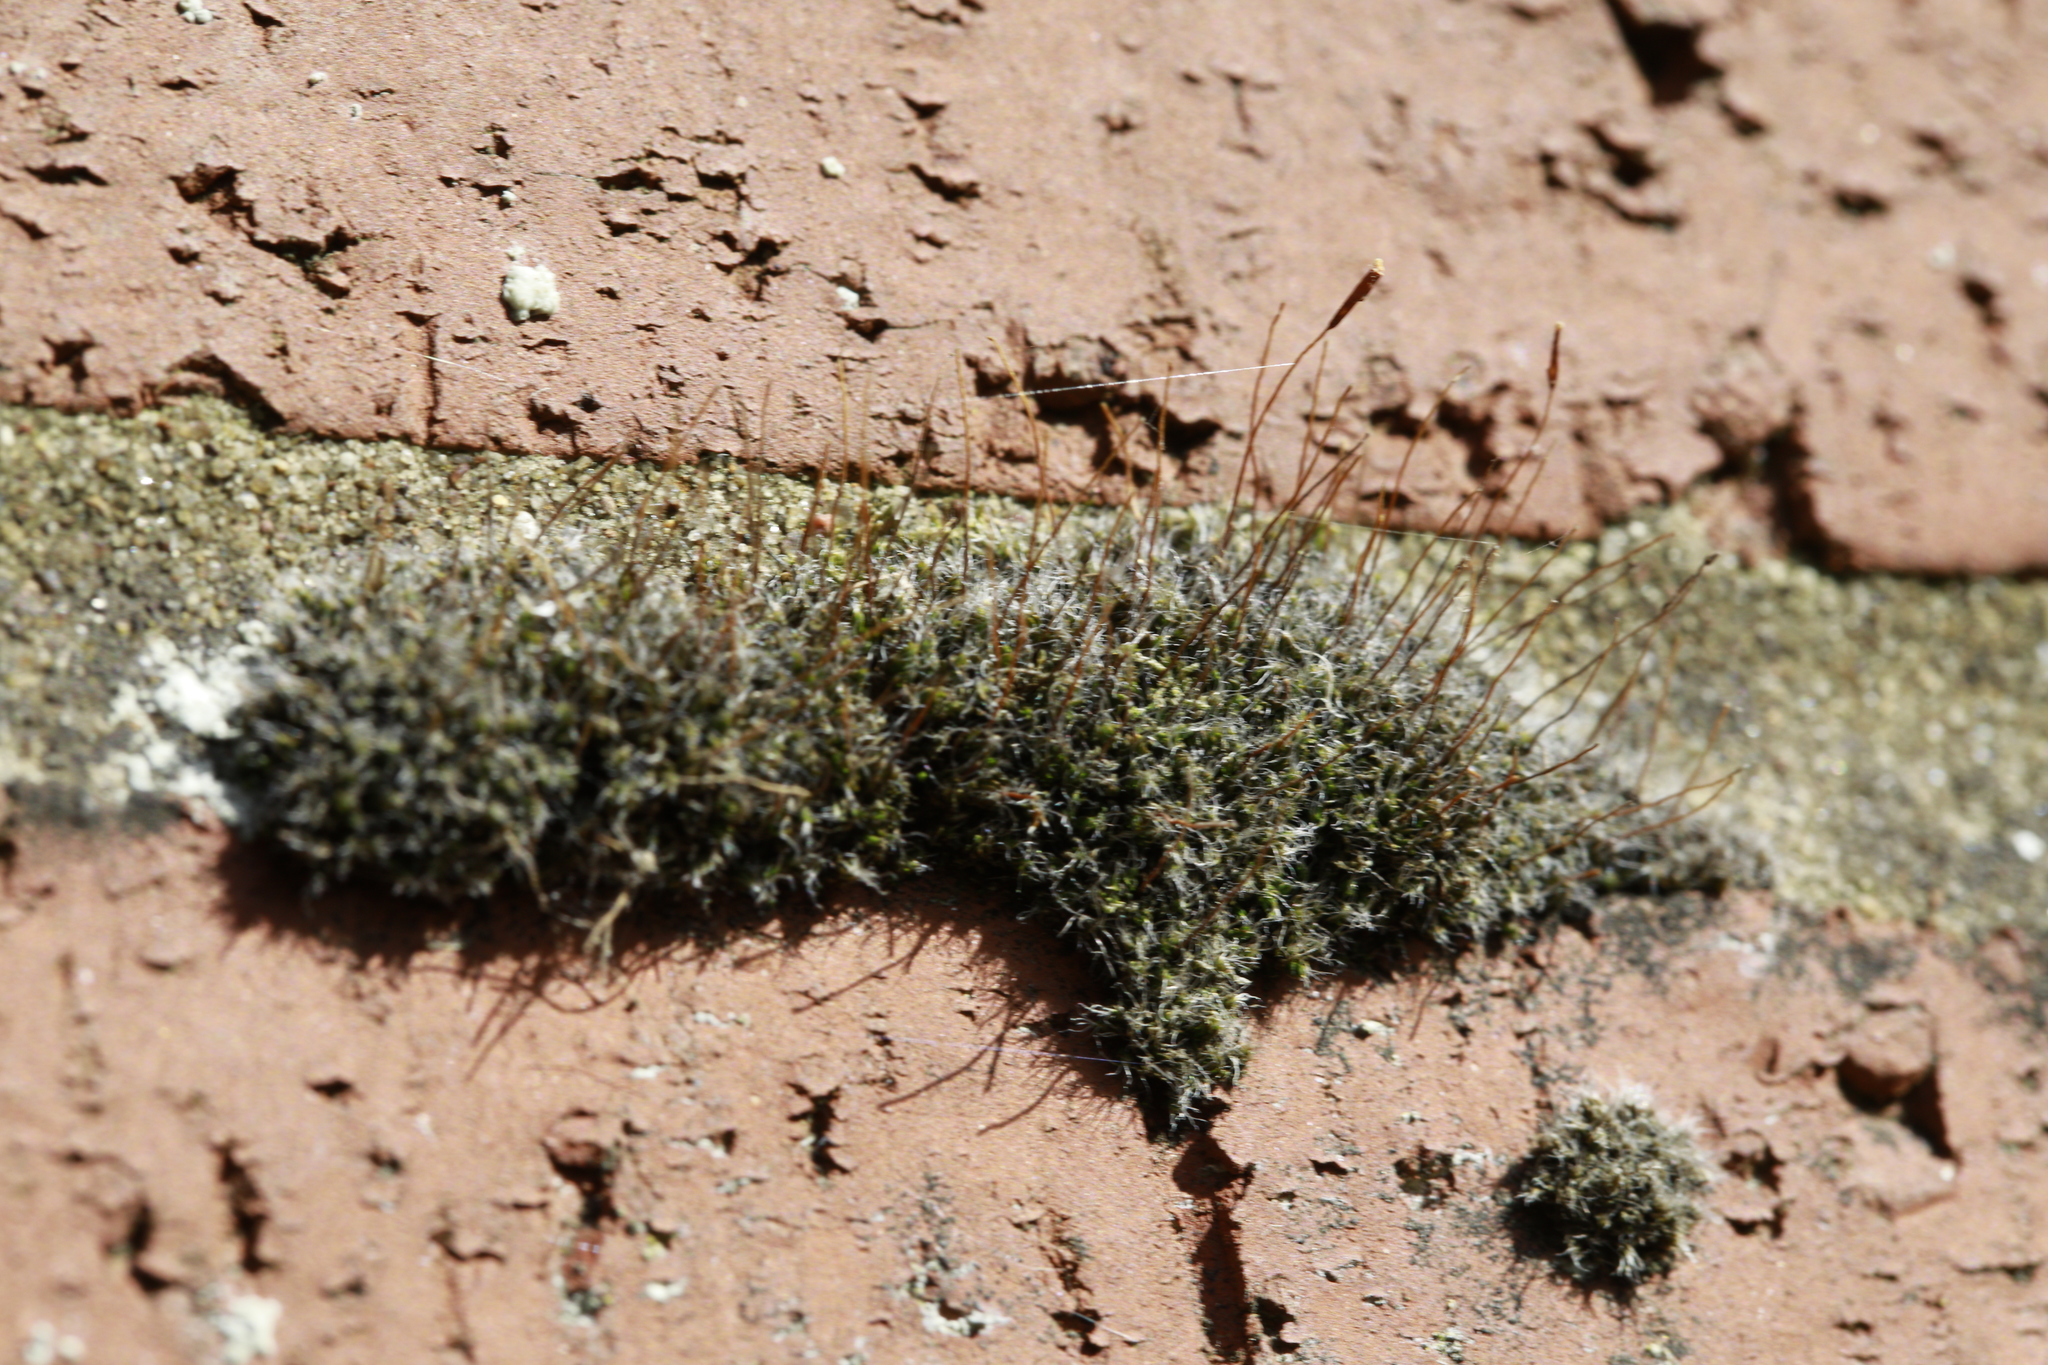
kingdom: Plantae
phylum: Bryophyta
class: Bryopsida
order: Pottiales
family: Pottiaceae
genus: Tortula
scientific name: Tortula muralis
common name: Wall screw-moss
